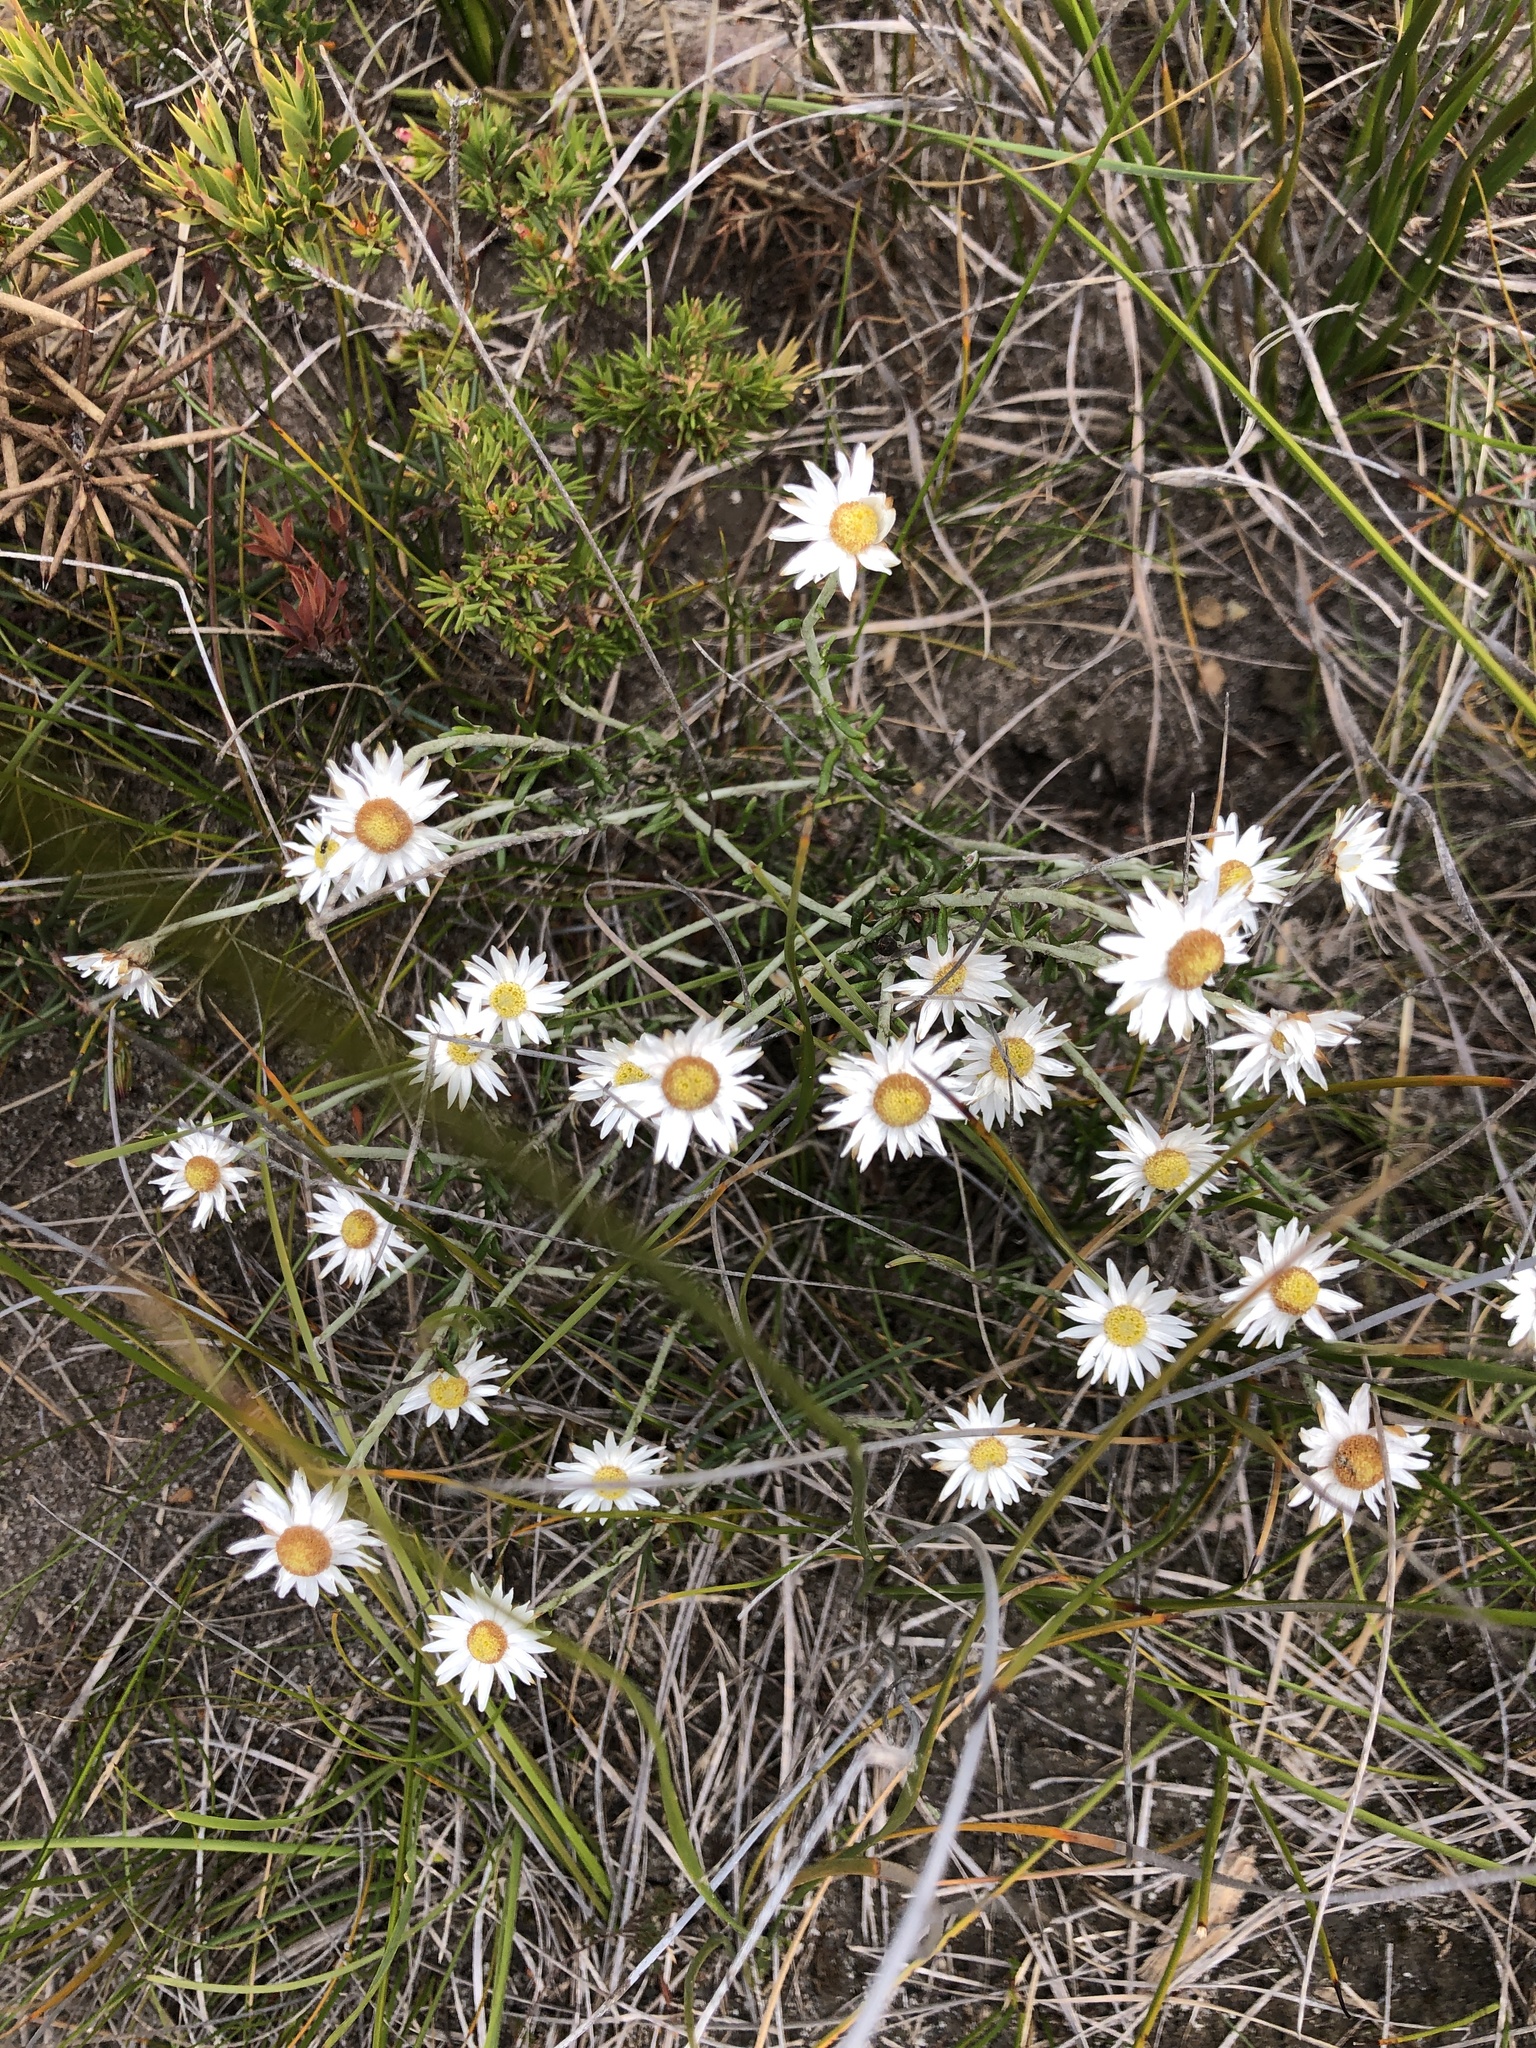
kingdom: Plantae
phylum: Tracheophyta
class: Magnoliopsida
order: Asterales
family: Asteraceae
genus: Argentipallium
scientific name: Argentipallium obtusifolium
